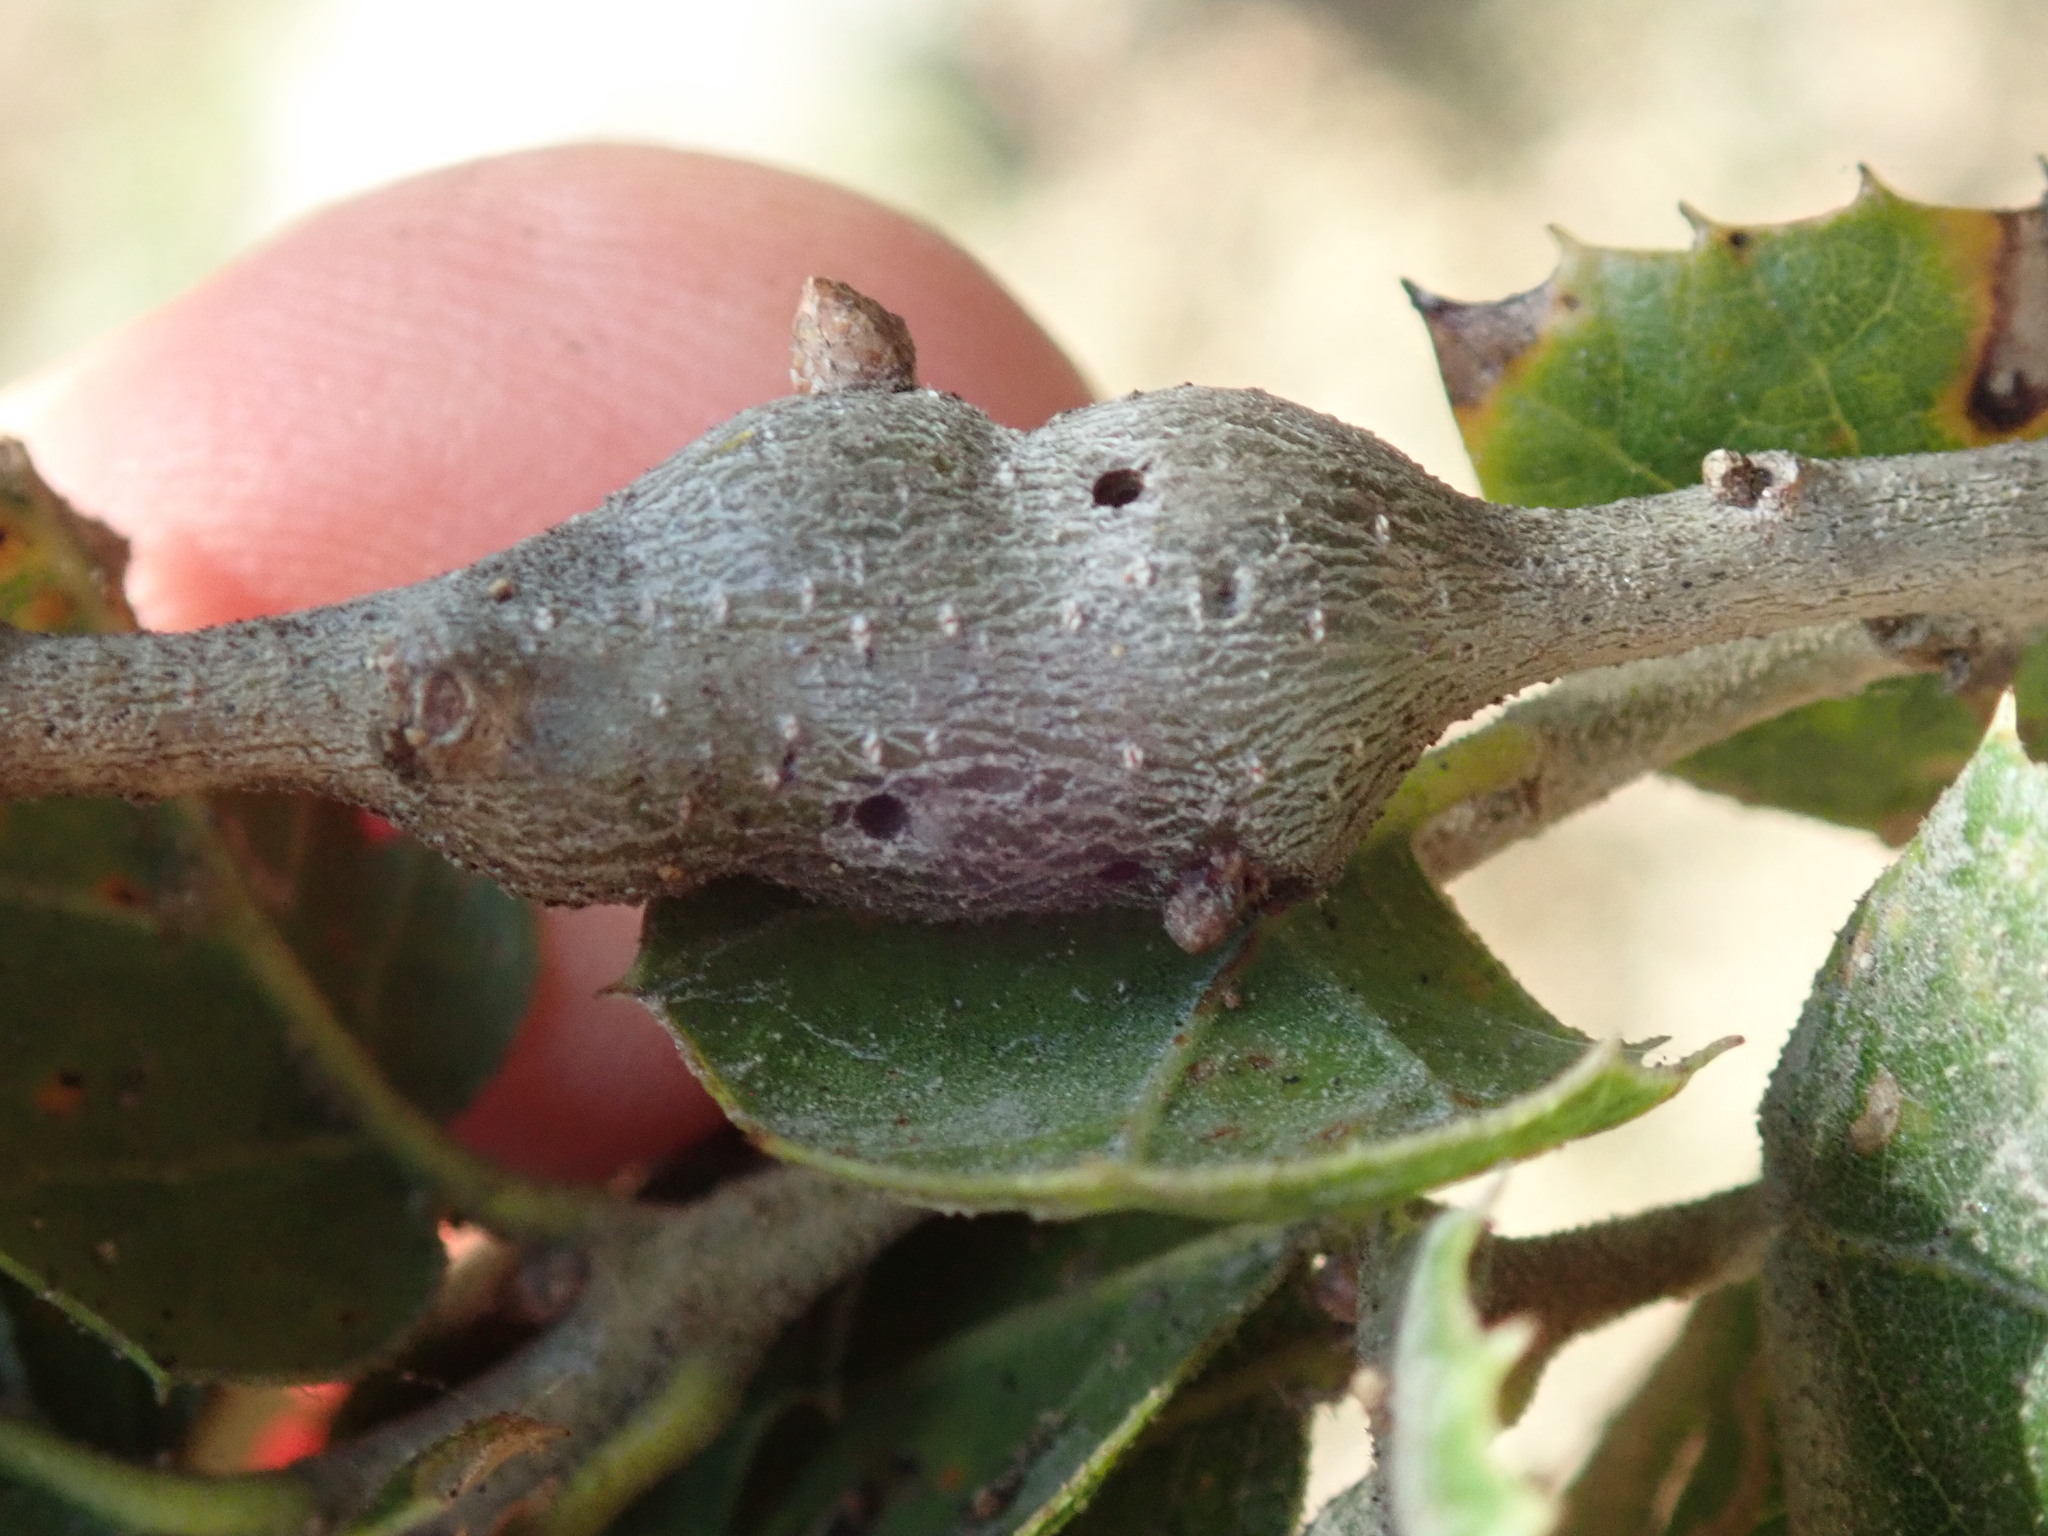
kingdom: Animalia
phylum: Arthropoda
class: Insecta
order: Hymenoptera
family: Cynipidae
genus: Callirhytis
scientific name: Callirhytis
